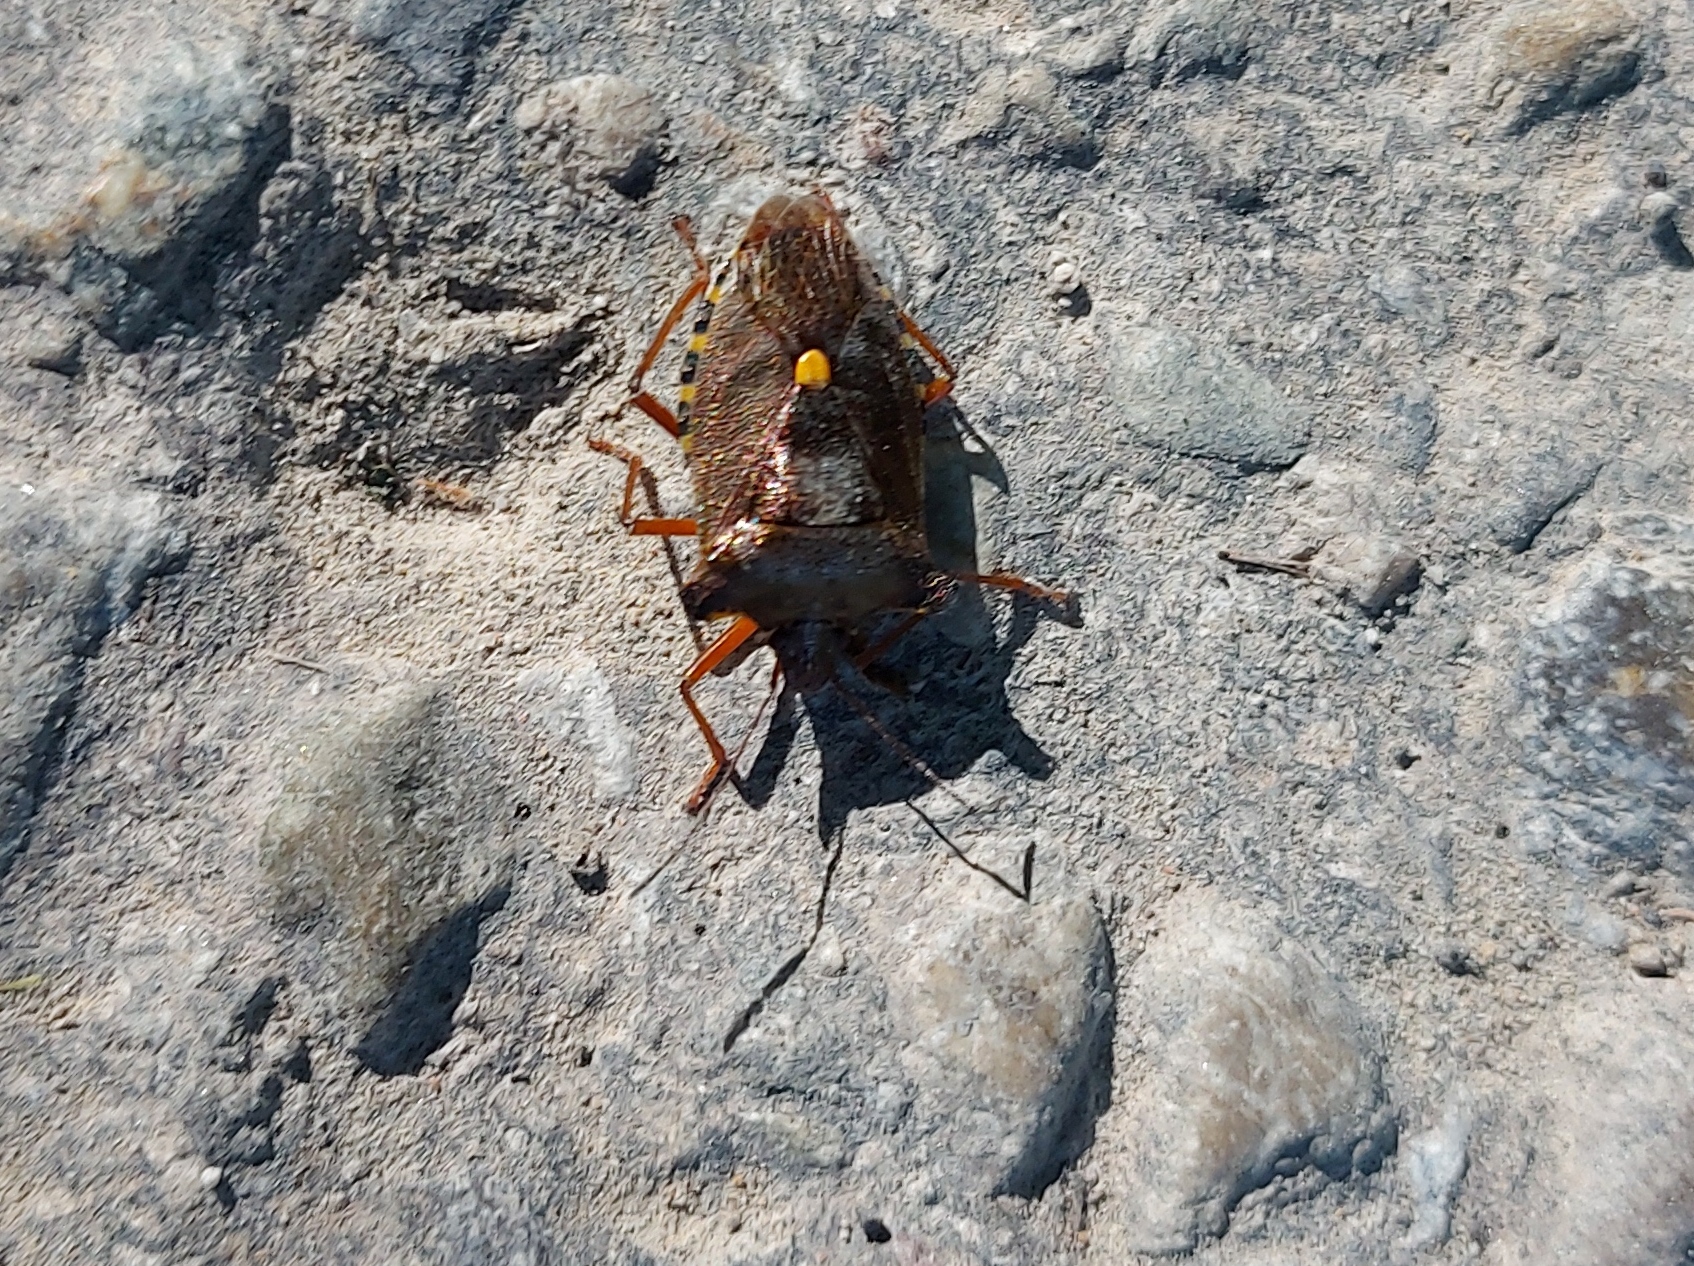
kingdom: Animalia
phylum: Arthropoda
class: Insecta
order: Hemiptera
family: Pentatomidae
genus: Pentatoma
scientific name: Pentatoma rufipes
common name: Forest bug
